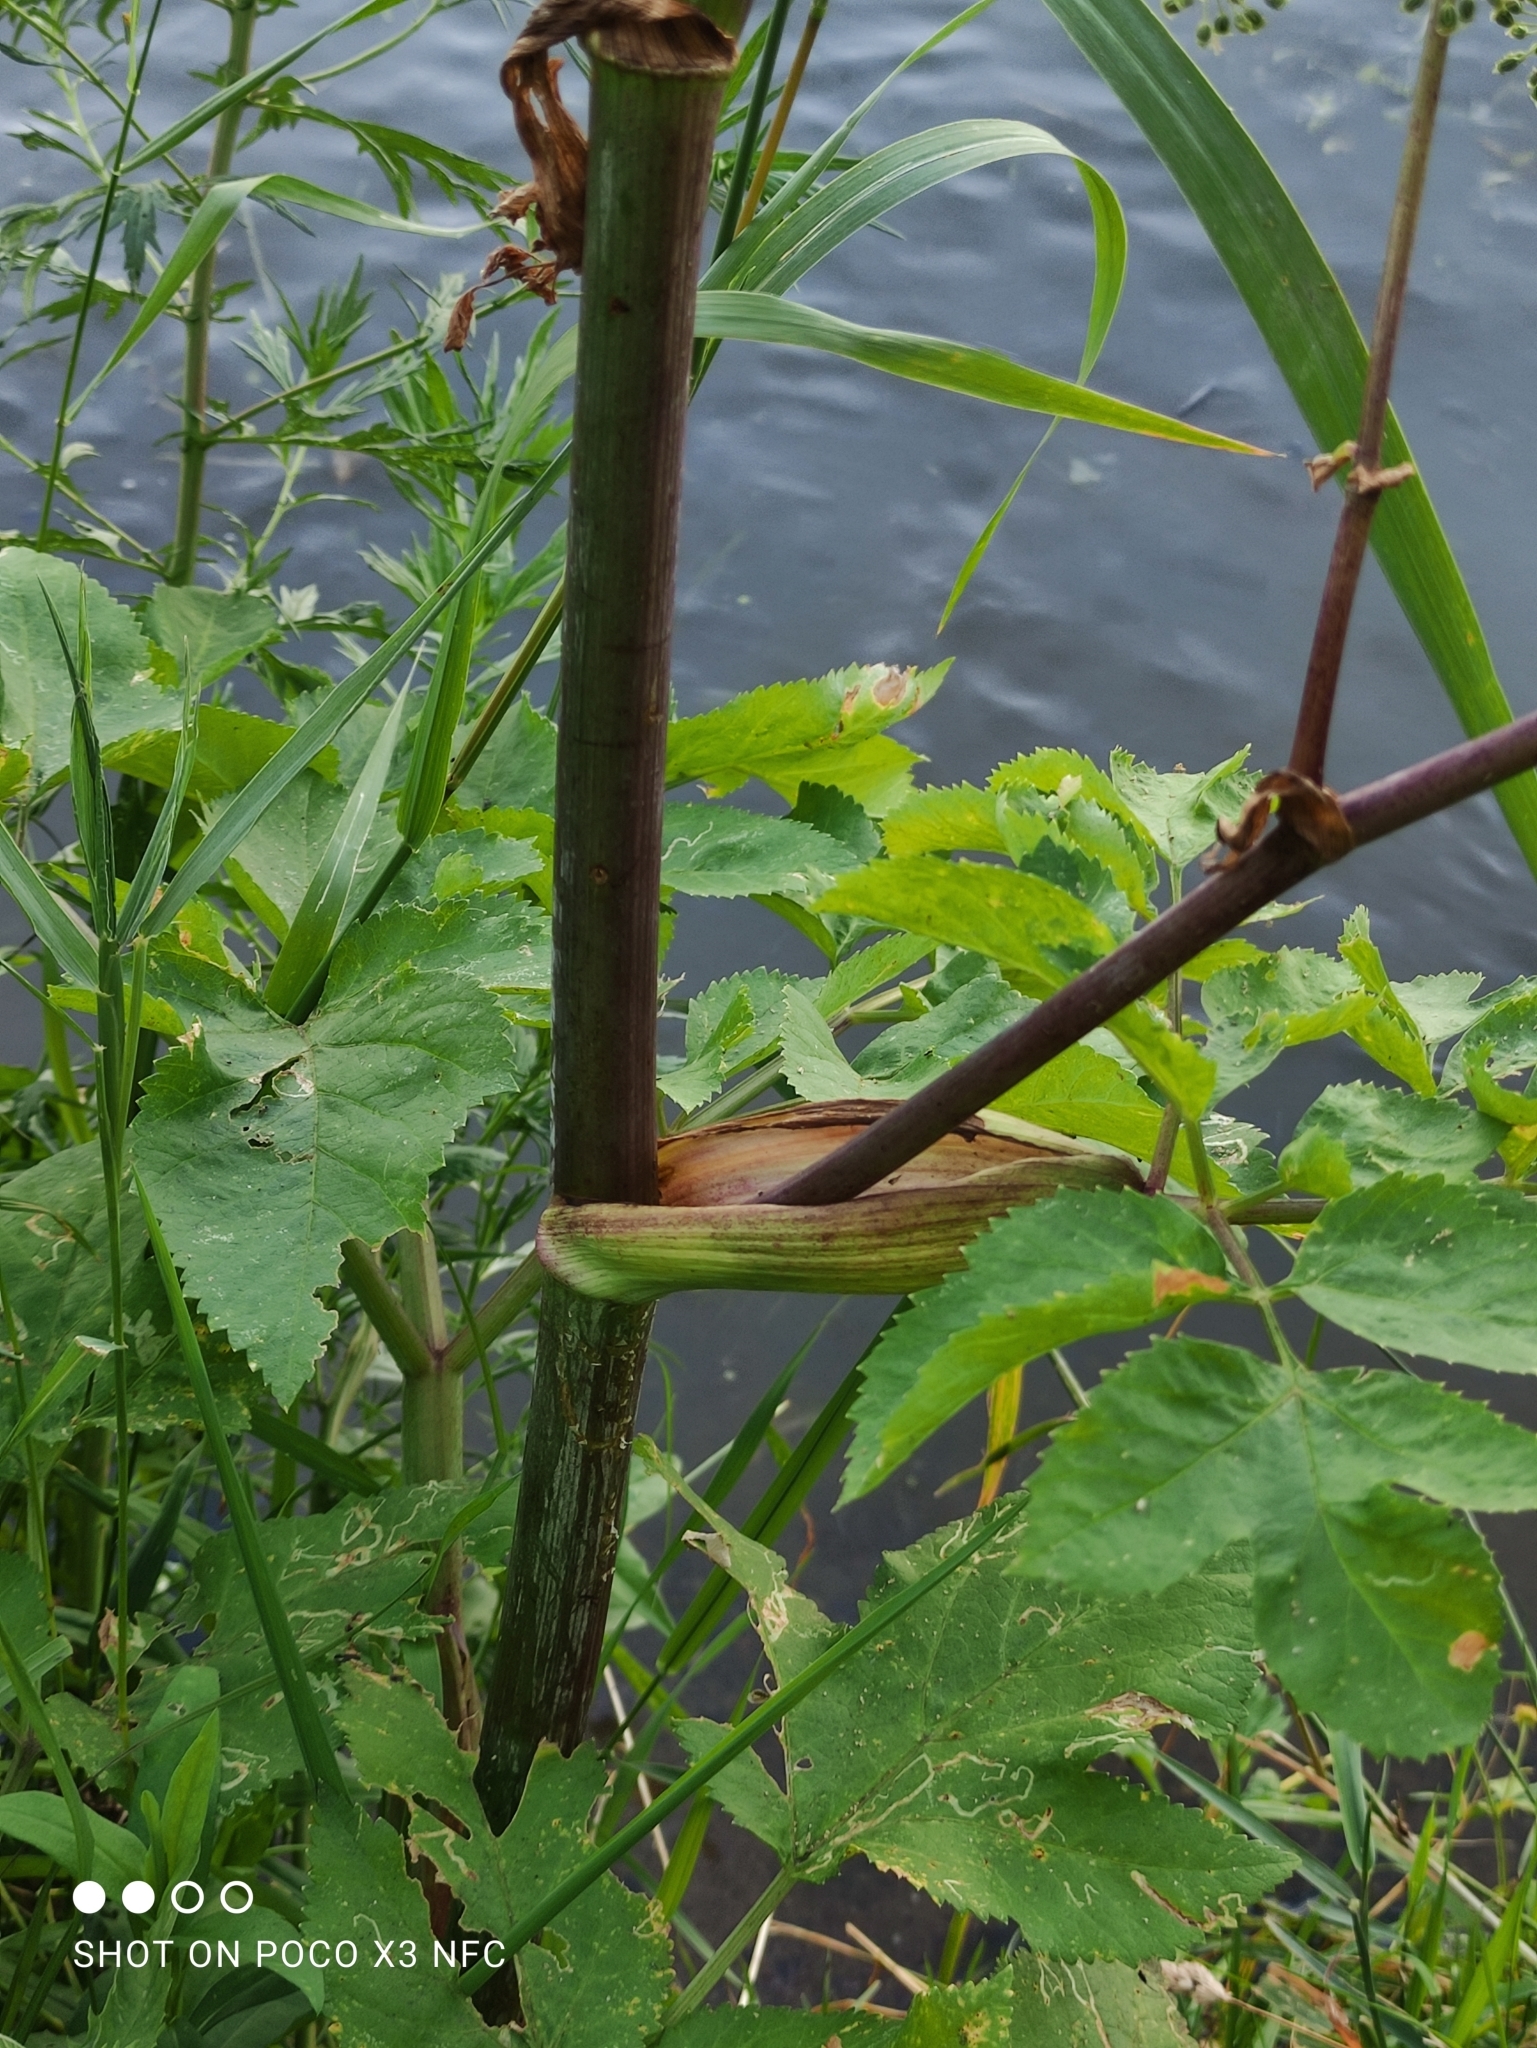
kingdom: Plantae
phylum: Tracheophyta
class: Magnoliopsida
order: Apiales
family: Apiaceae
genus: Angelica
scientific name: Angelica archangelica
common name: Garden angelica
